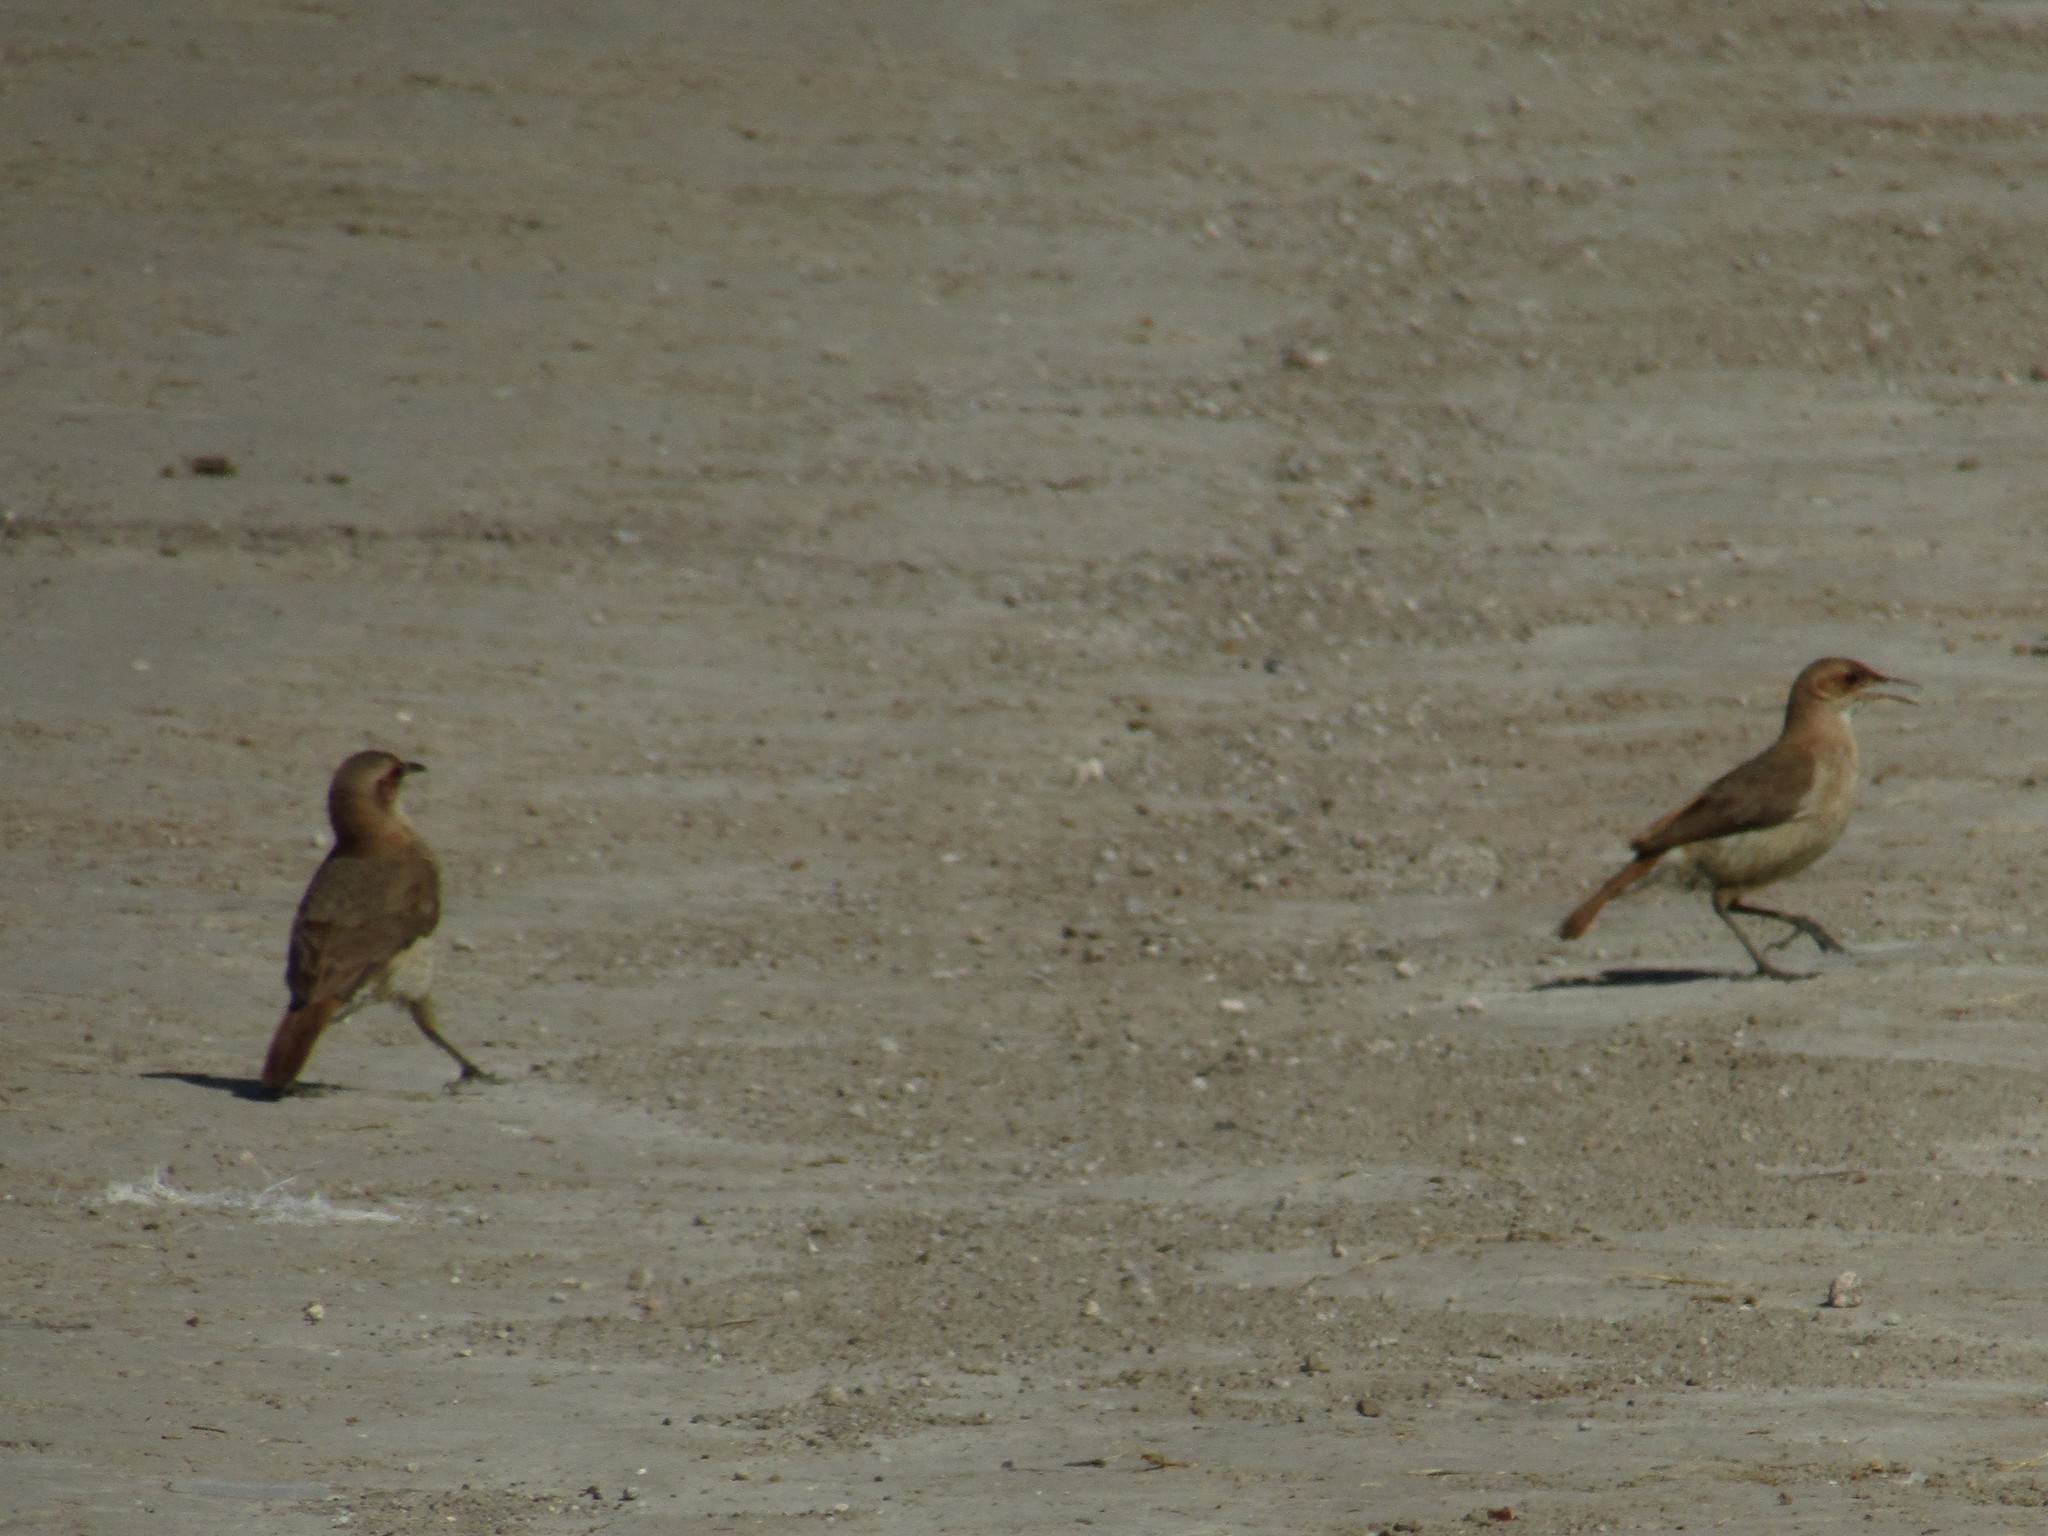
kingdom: Animalia
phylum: Chordata
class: Aves
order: Passeriformes
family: Furnariidae
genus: Furnarius
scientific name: Furnarius rufus
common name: Rufous hornero
